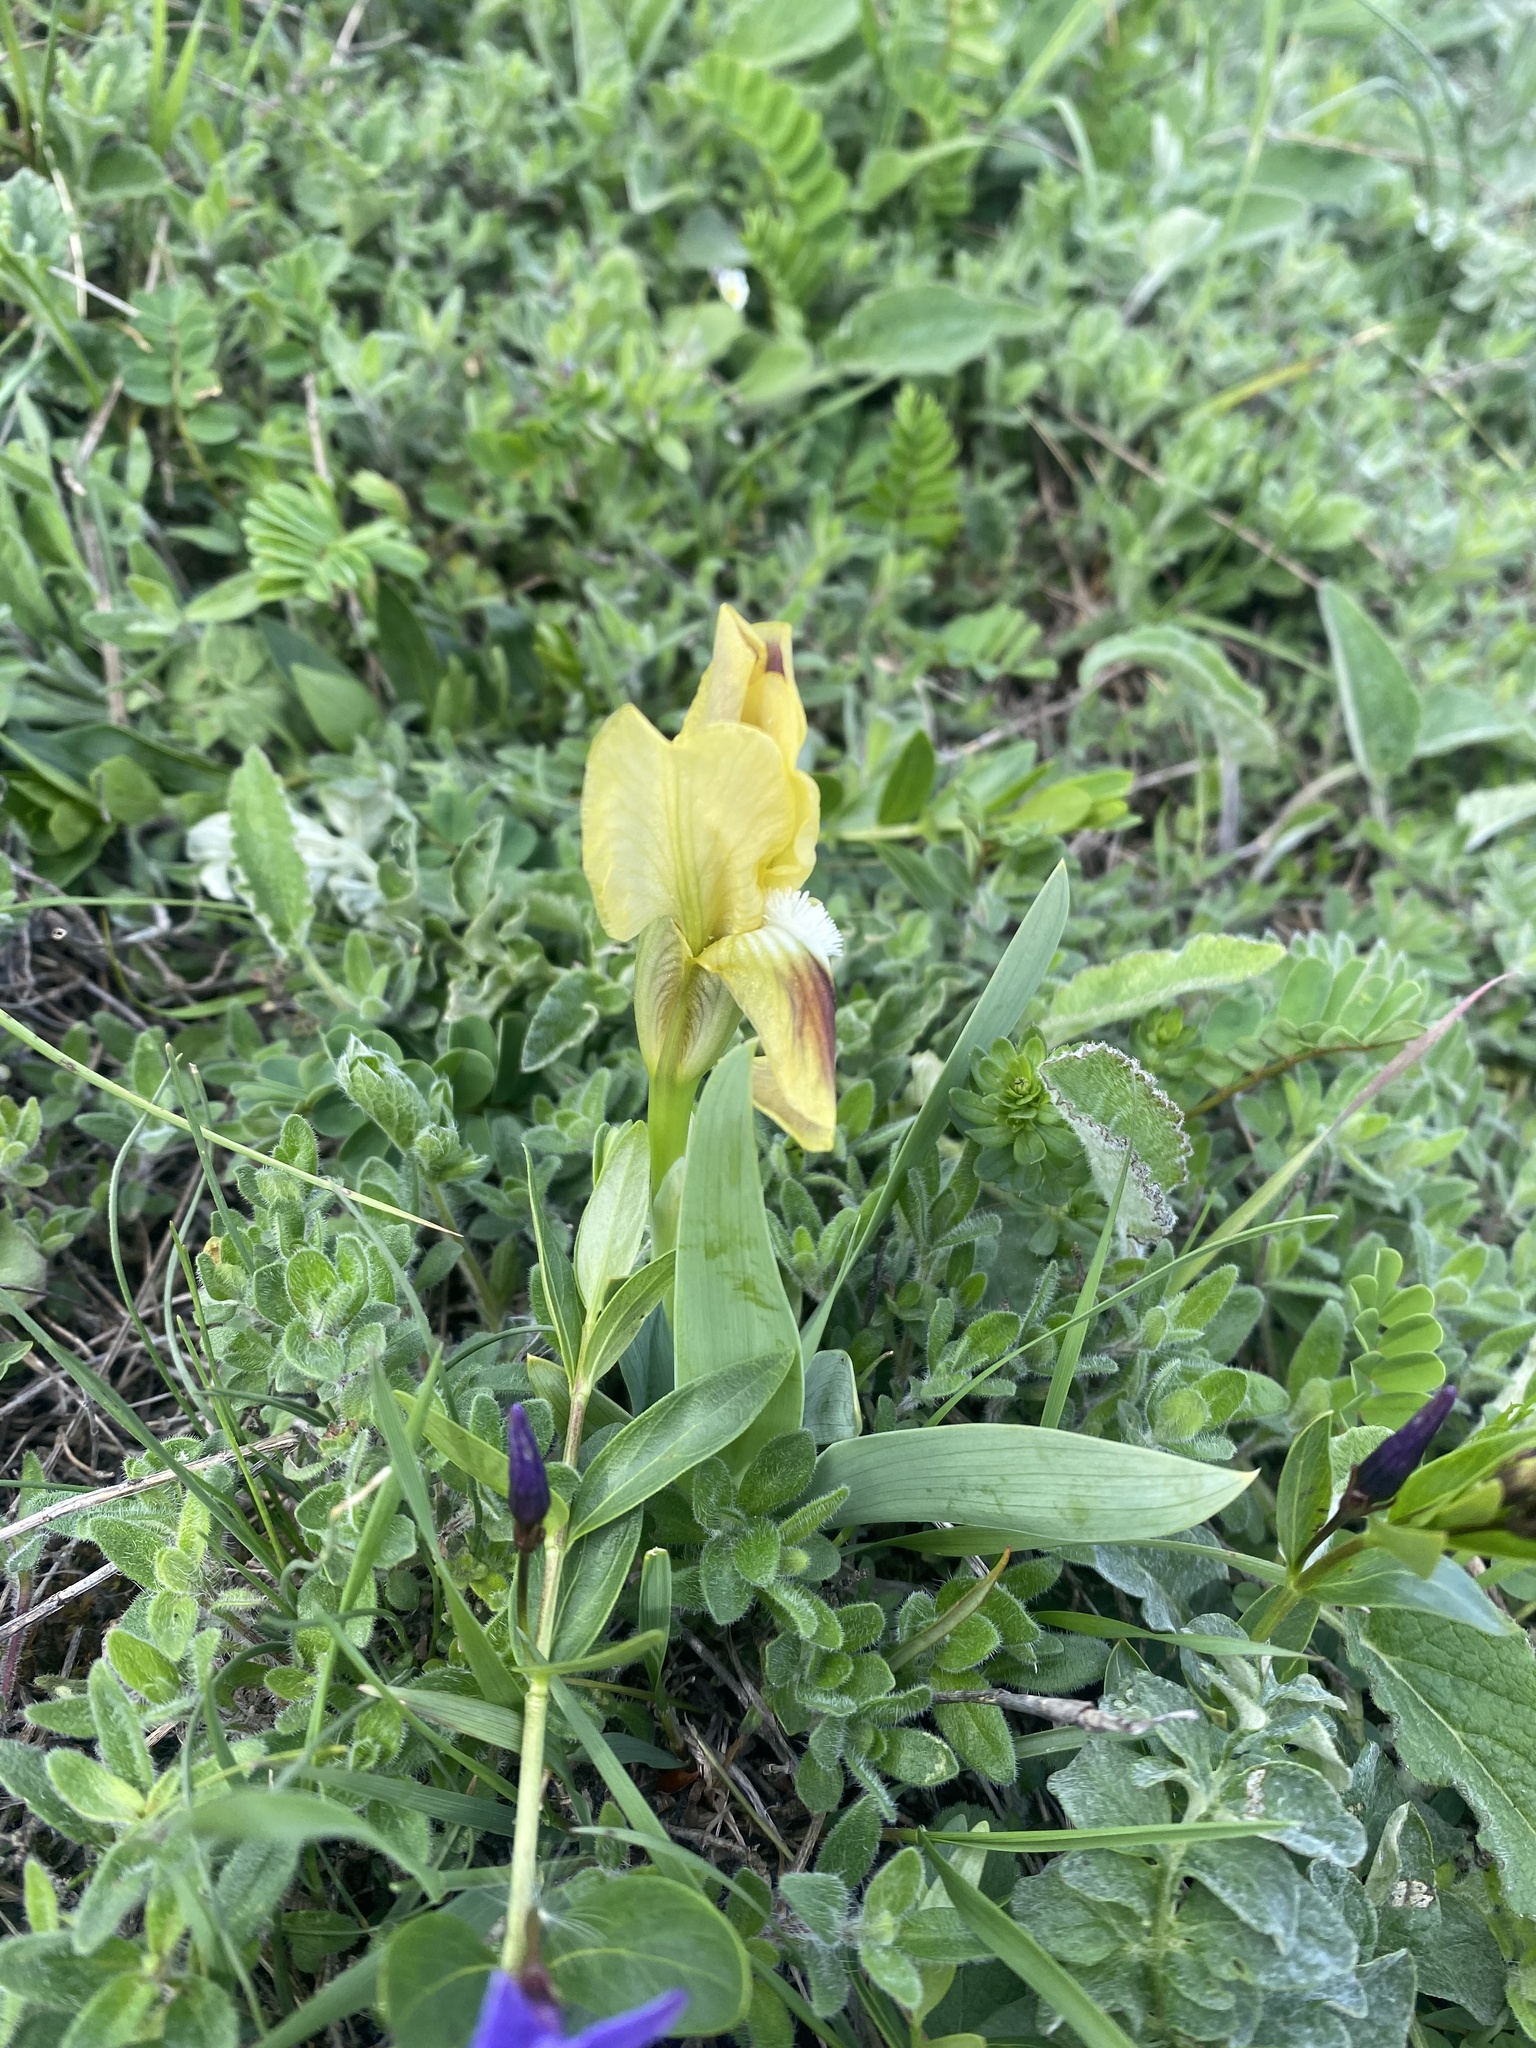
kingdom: Plantae
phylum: Tracheophyta
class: Liliopsida
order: Asparagales
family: Iridaceae
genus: Iris
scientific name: Iris pumila
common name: Dwarf iris
